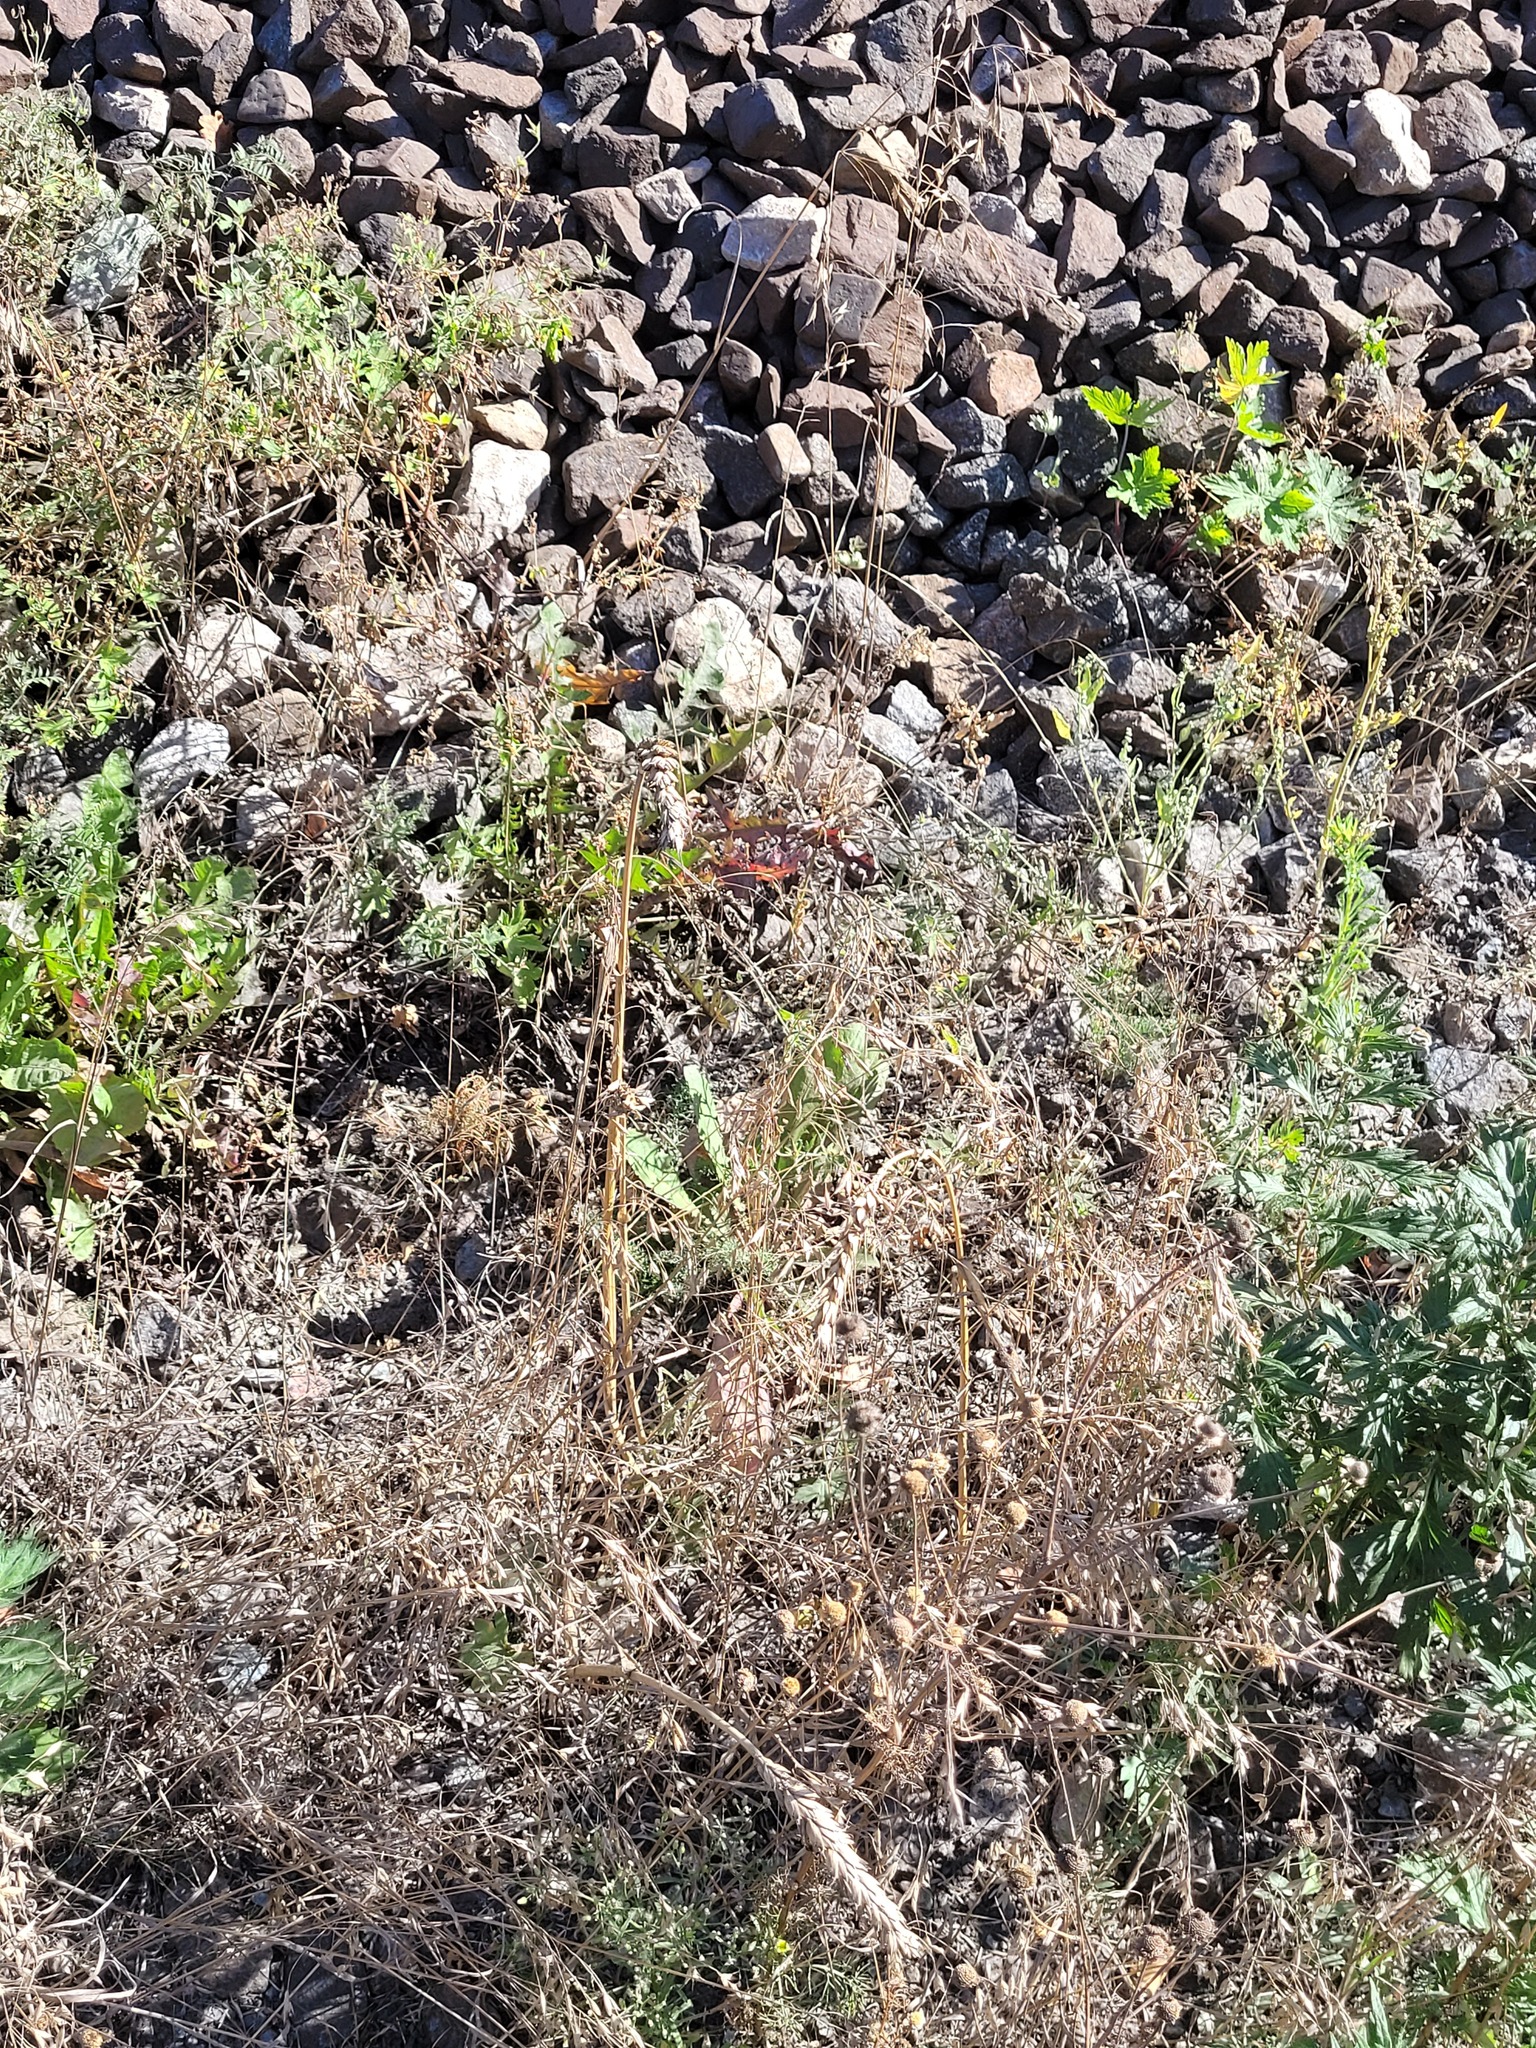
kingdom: Plantae
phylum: Tracheophyta
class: Liliopsida
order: Poales
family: Poaceae
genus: Triticum
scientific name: Triticum aestivum
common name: Common wheat
